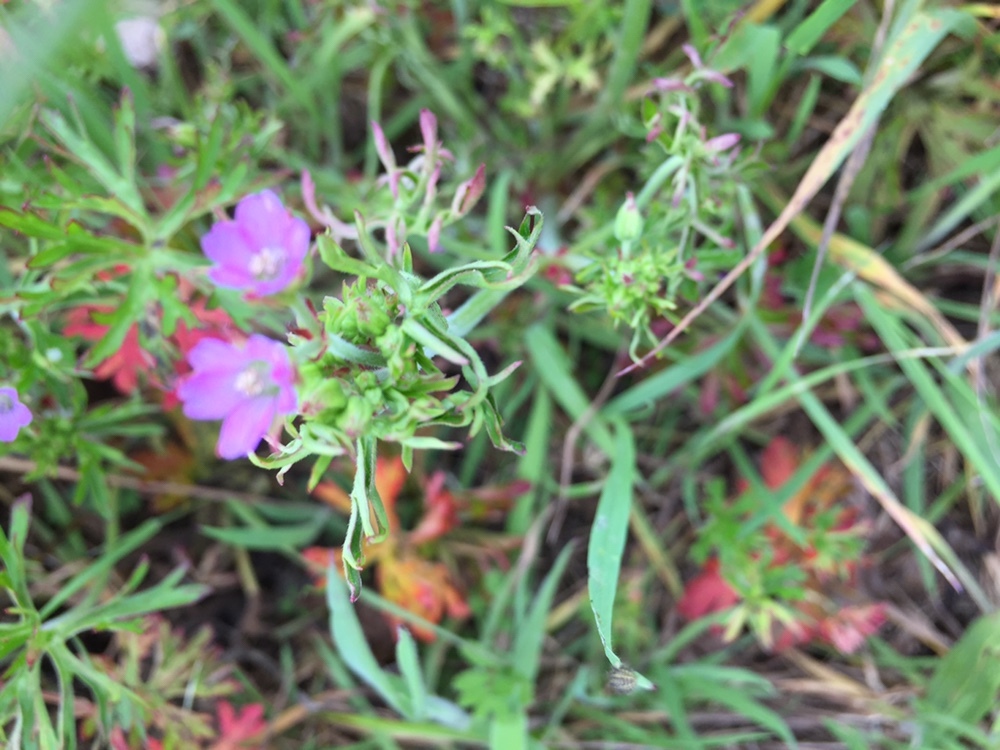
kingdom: Plantae
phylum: Tracheophyta
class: Magnoliopsida
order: Geraniales
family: Geraniaceae
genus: Geranium
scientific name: Geranium dissectum
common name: Cut-leaved crane's-bill
